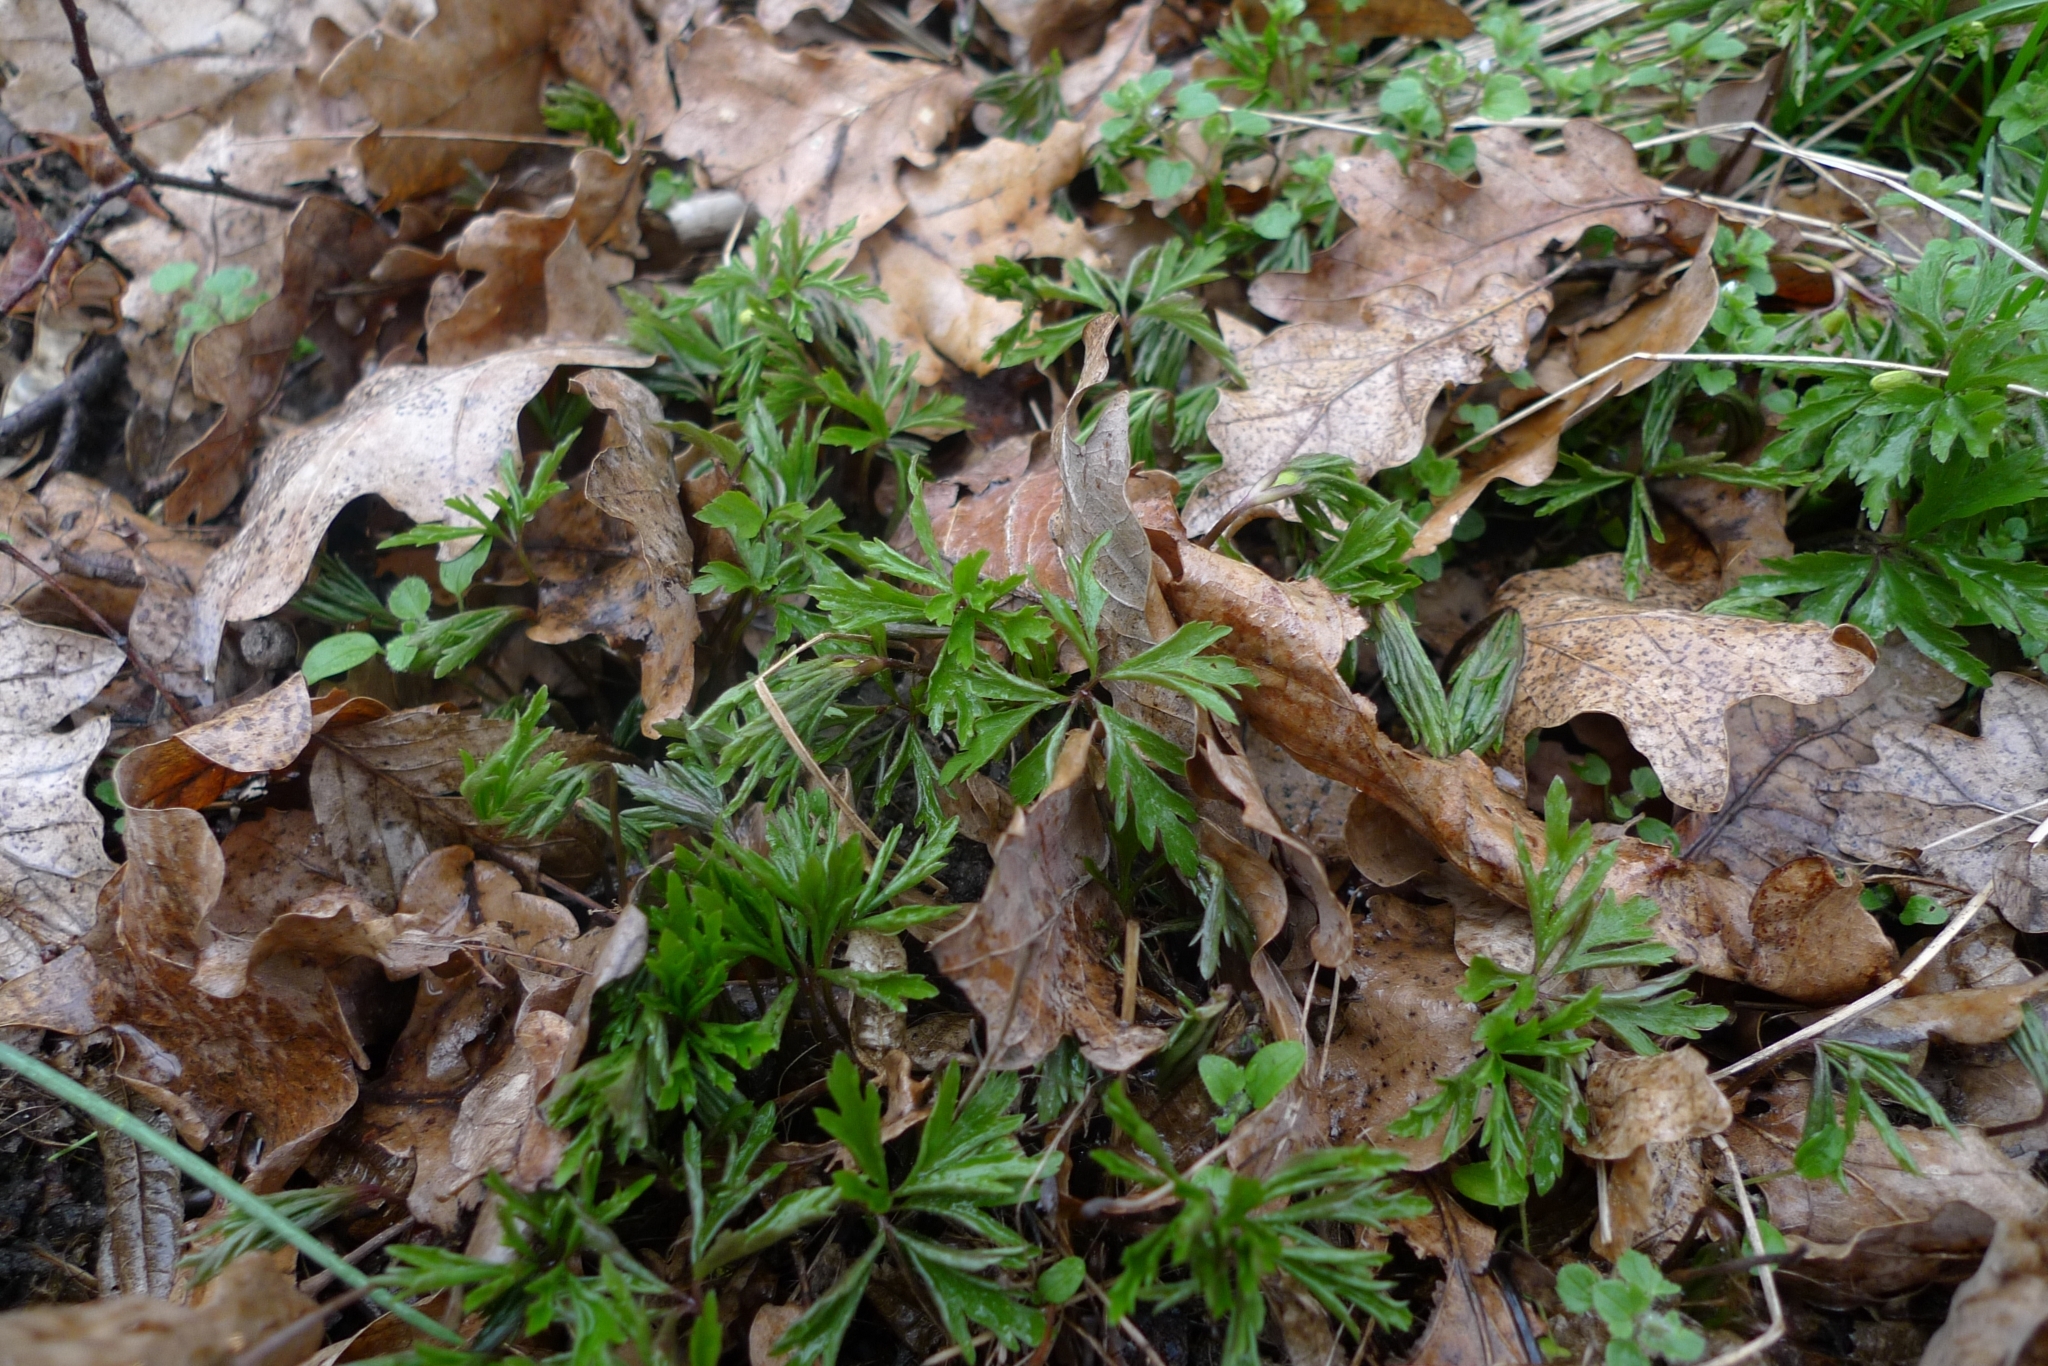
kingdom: Plantae
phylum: Tracheophyta
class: Magnoliopsida
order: Ranunculales
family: Ranunculaceae
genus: Anemone
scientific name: Anemone nemorosa
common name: Wood anemone
